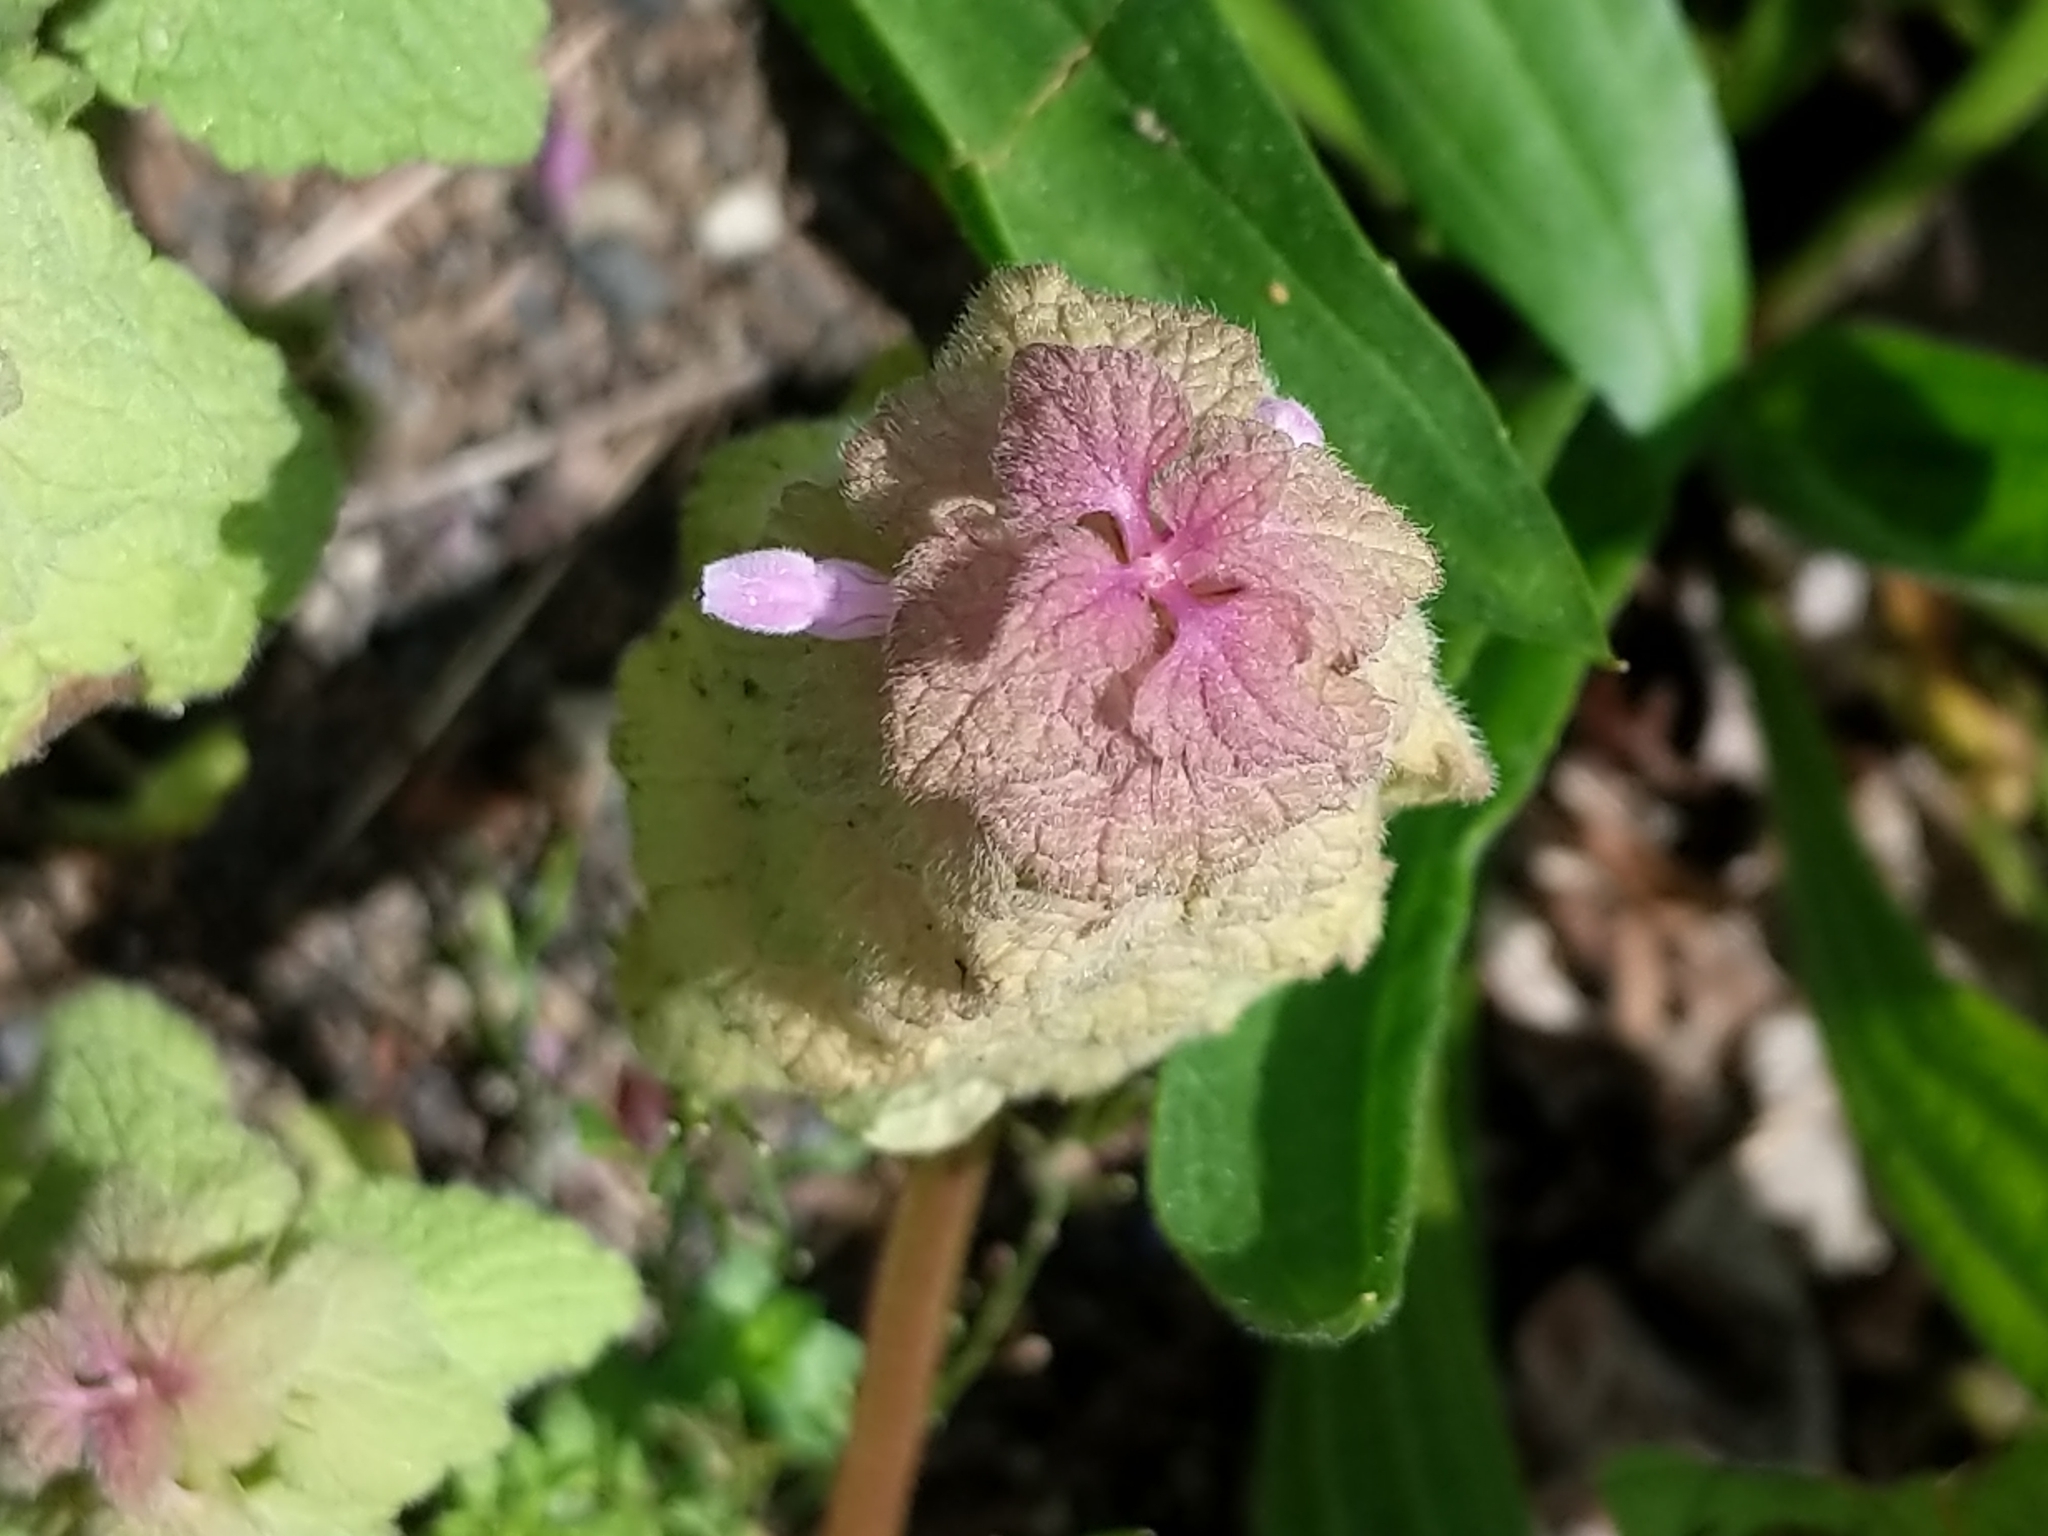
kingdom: Plantae
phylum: Tracheophyta
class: Magnoliopsida
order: Lamiales
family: Lamiaceae
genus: Lamium
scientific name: Lamium purpureum
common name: Red dead-nettle
